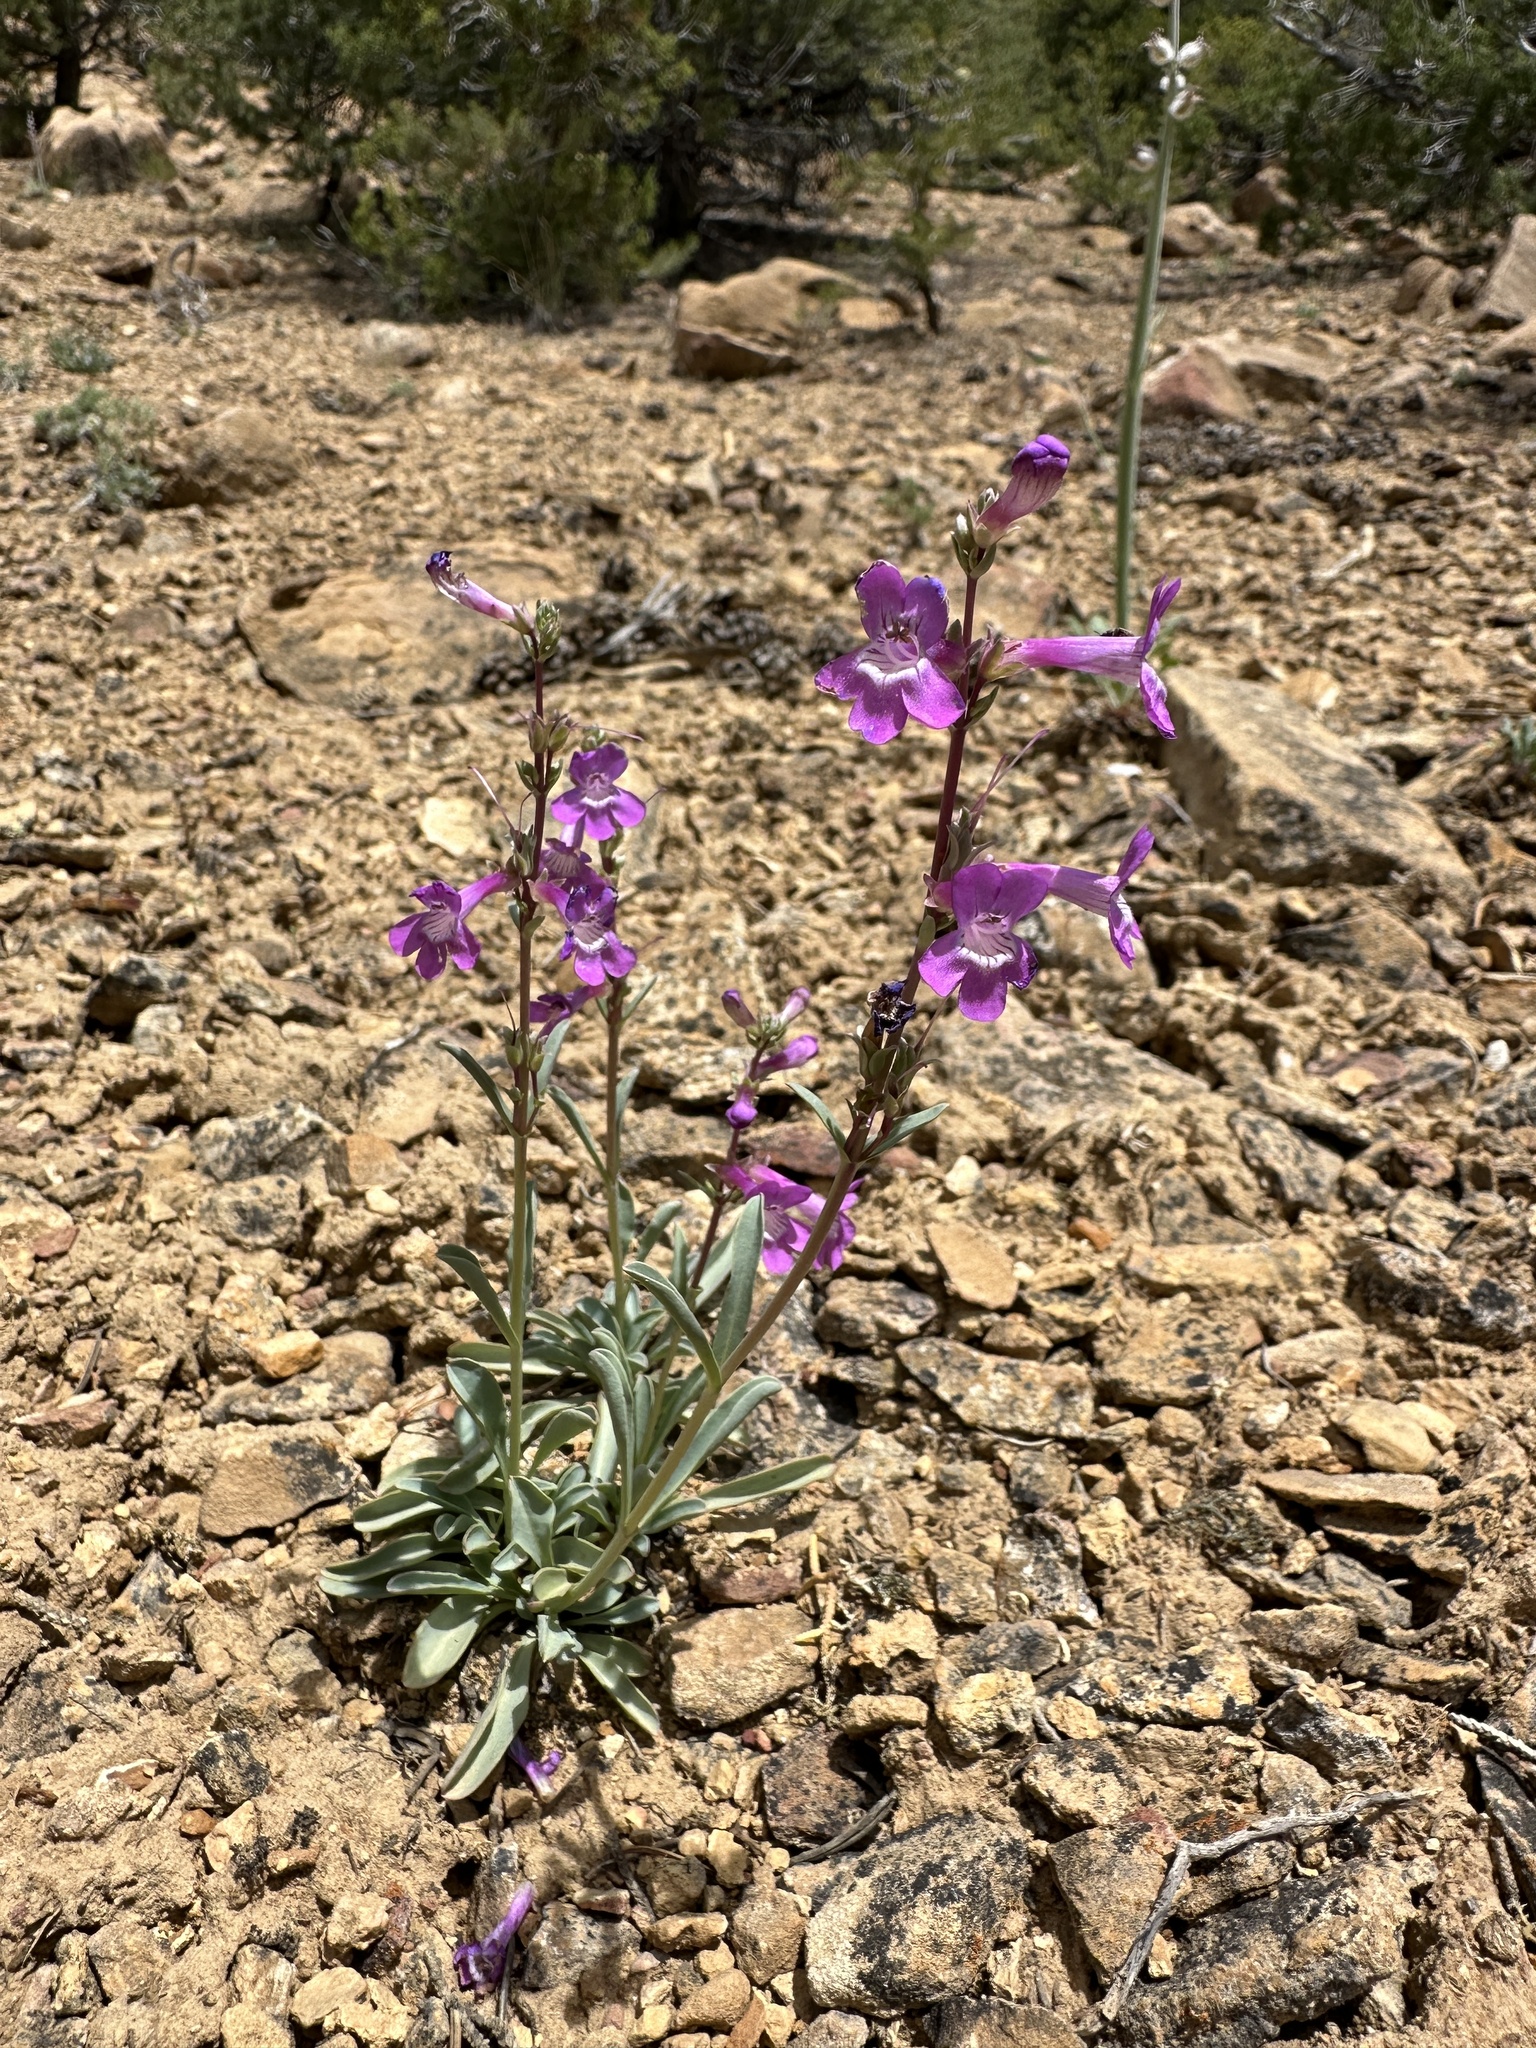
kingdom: Plantae
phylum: Tracheophyta
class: Magnoliopsida
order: Lamiales
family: Plantaginaceae
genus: Penstemon
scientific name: Penstemon confusus
